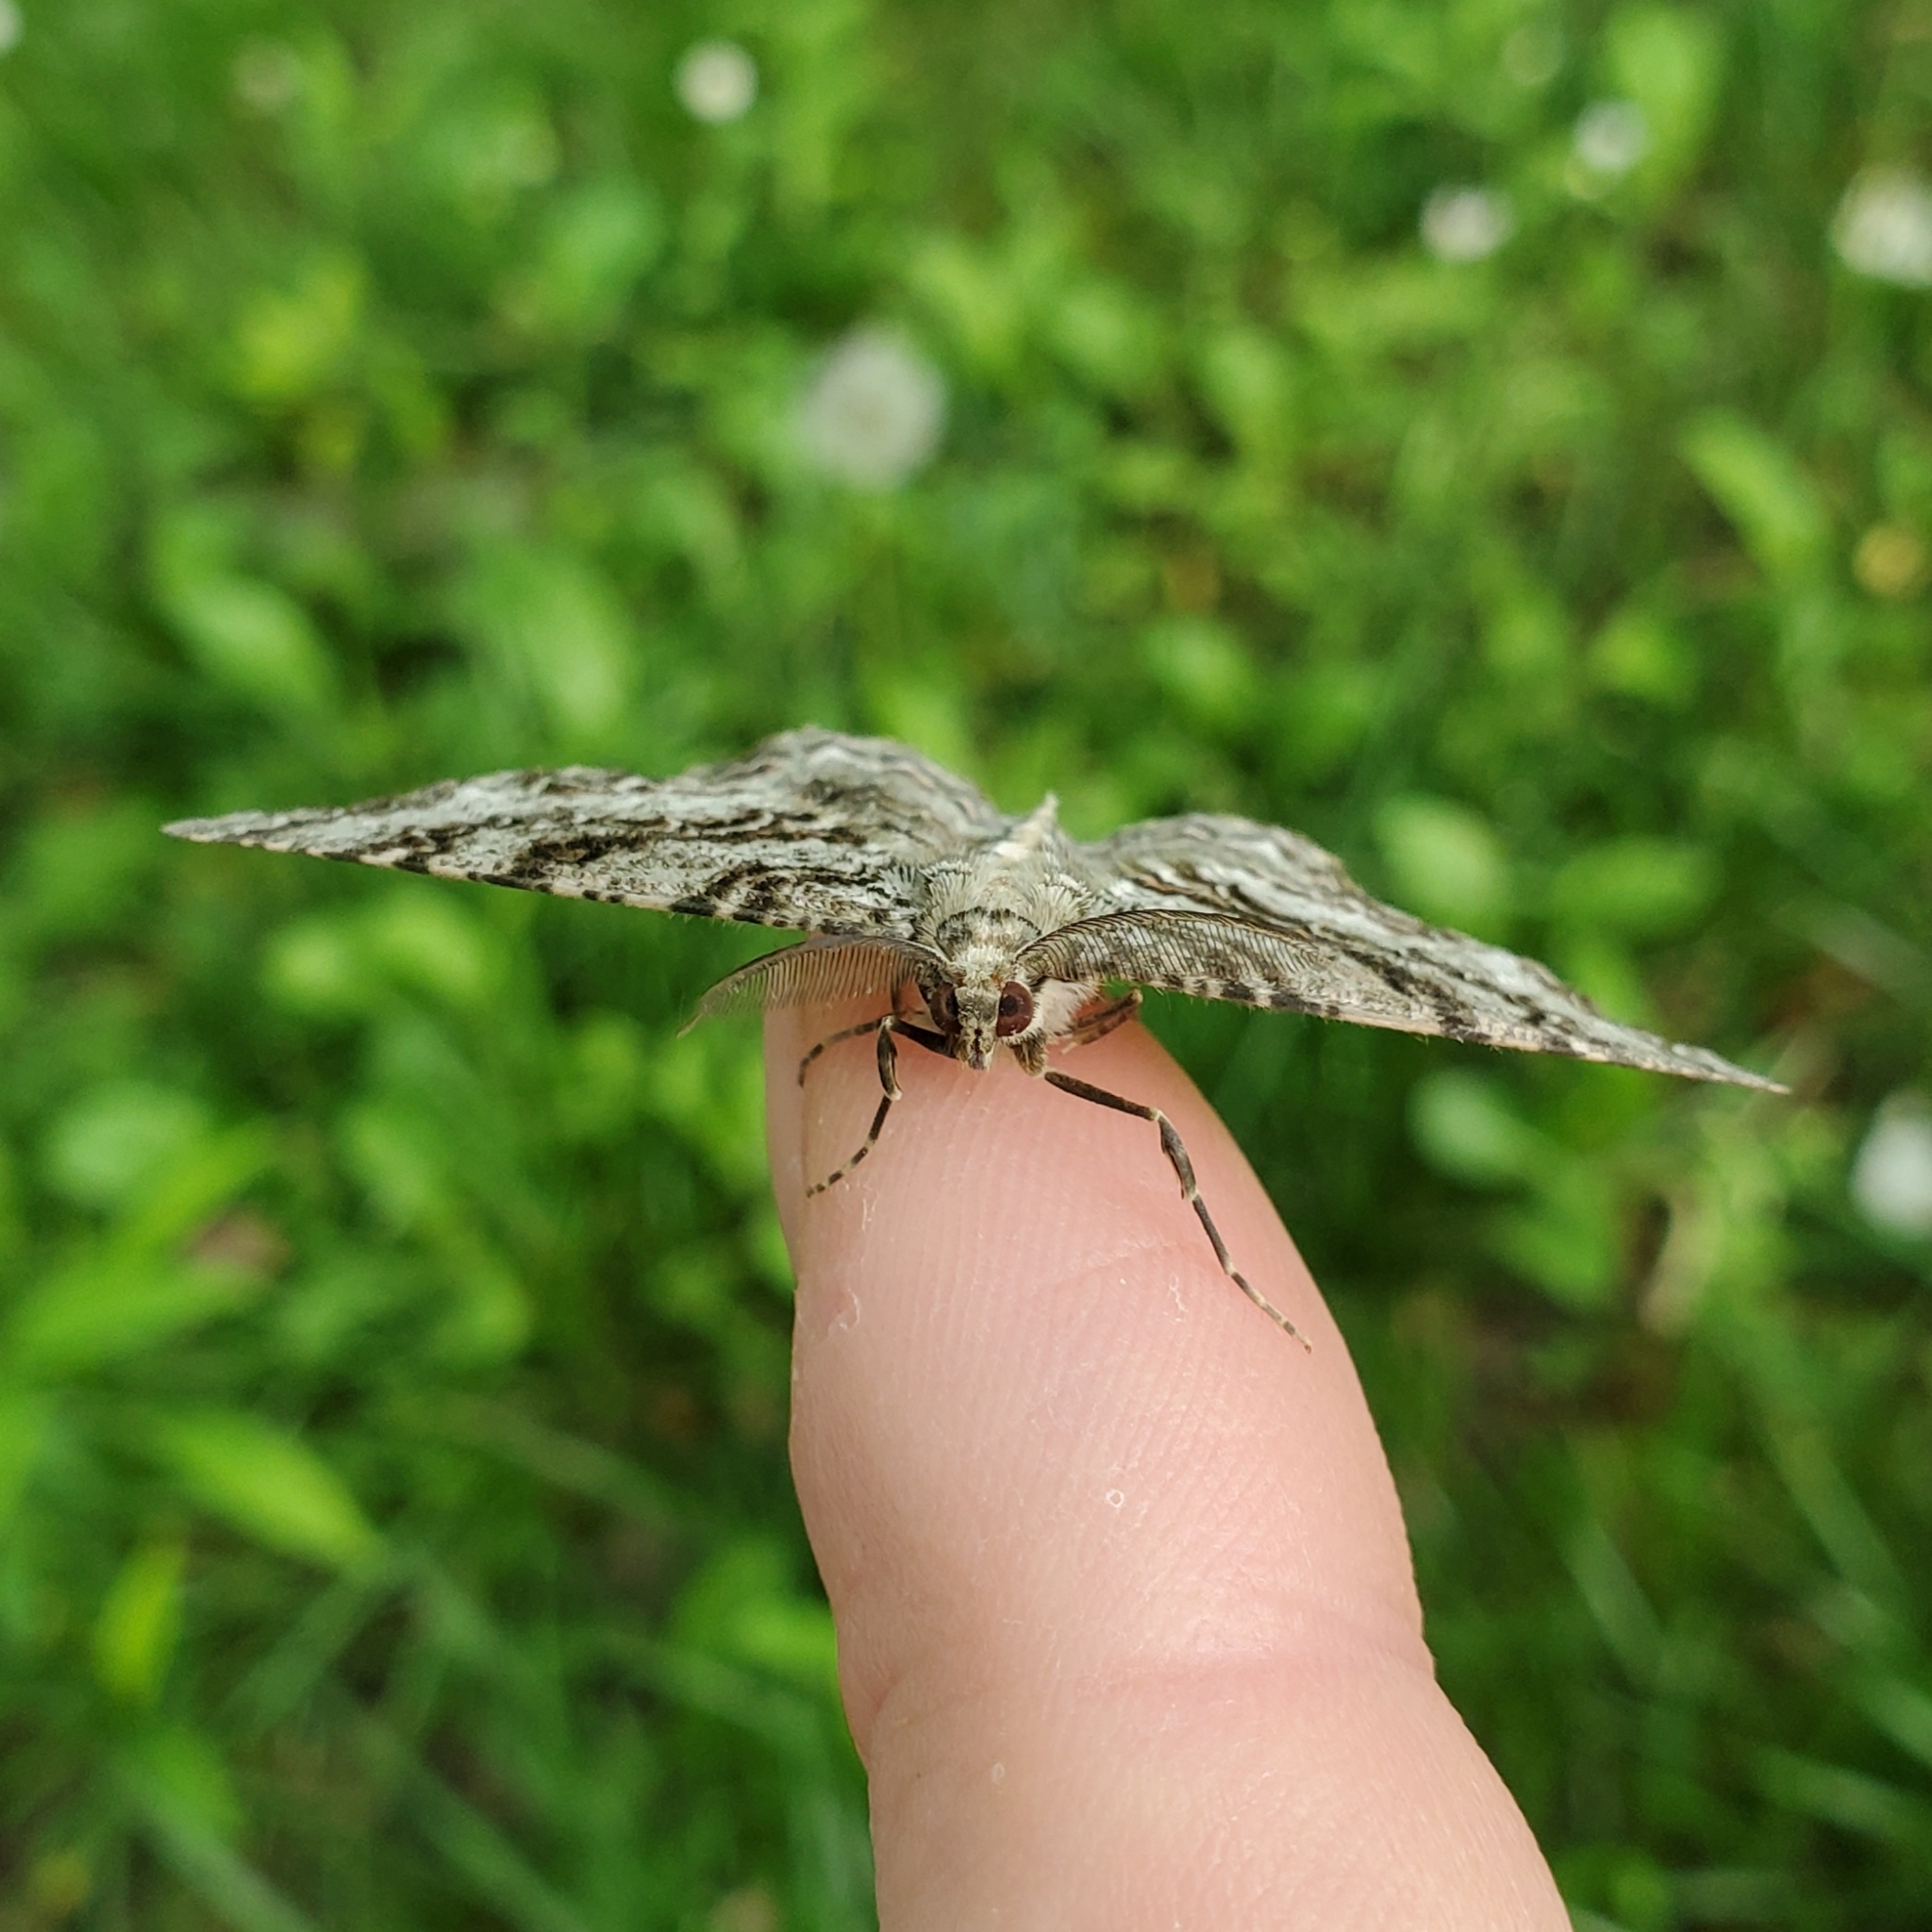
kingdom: Animalia
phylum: Arthropoda
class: Insecta
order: Lepidoptera
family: Geometridae
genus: Epimecis
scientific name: Epimecis hortaria
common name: Tulip-tree beauty
